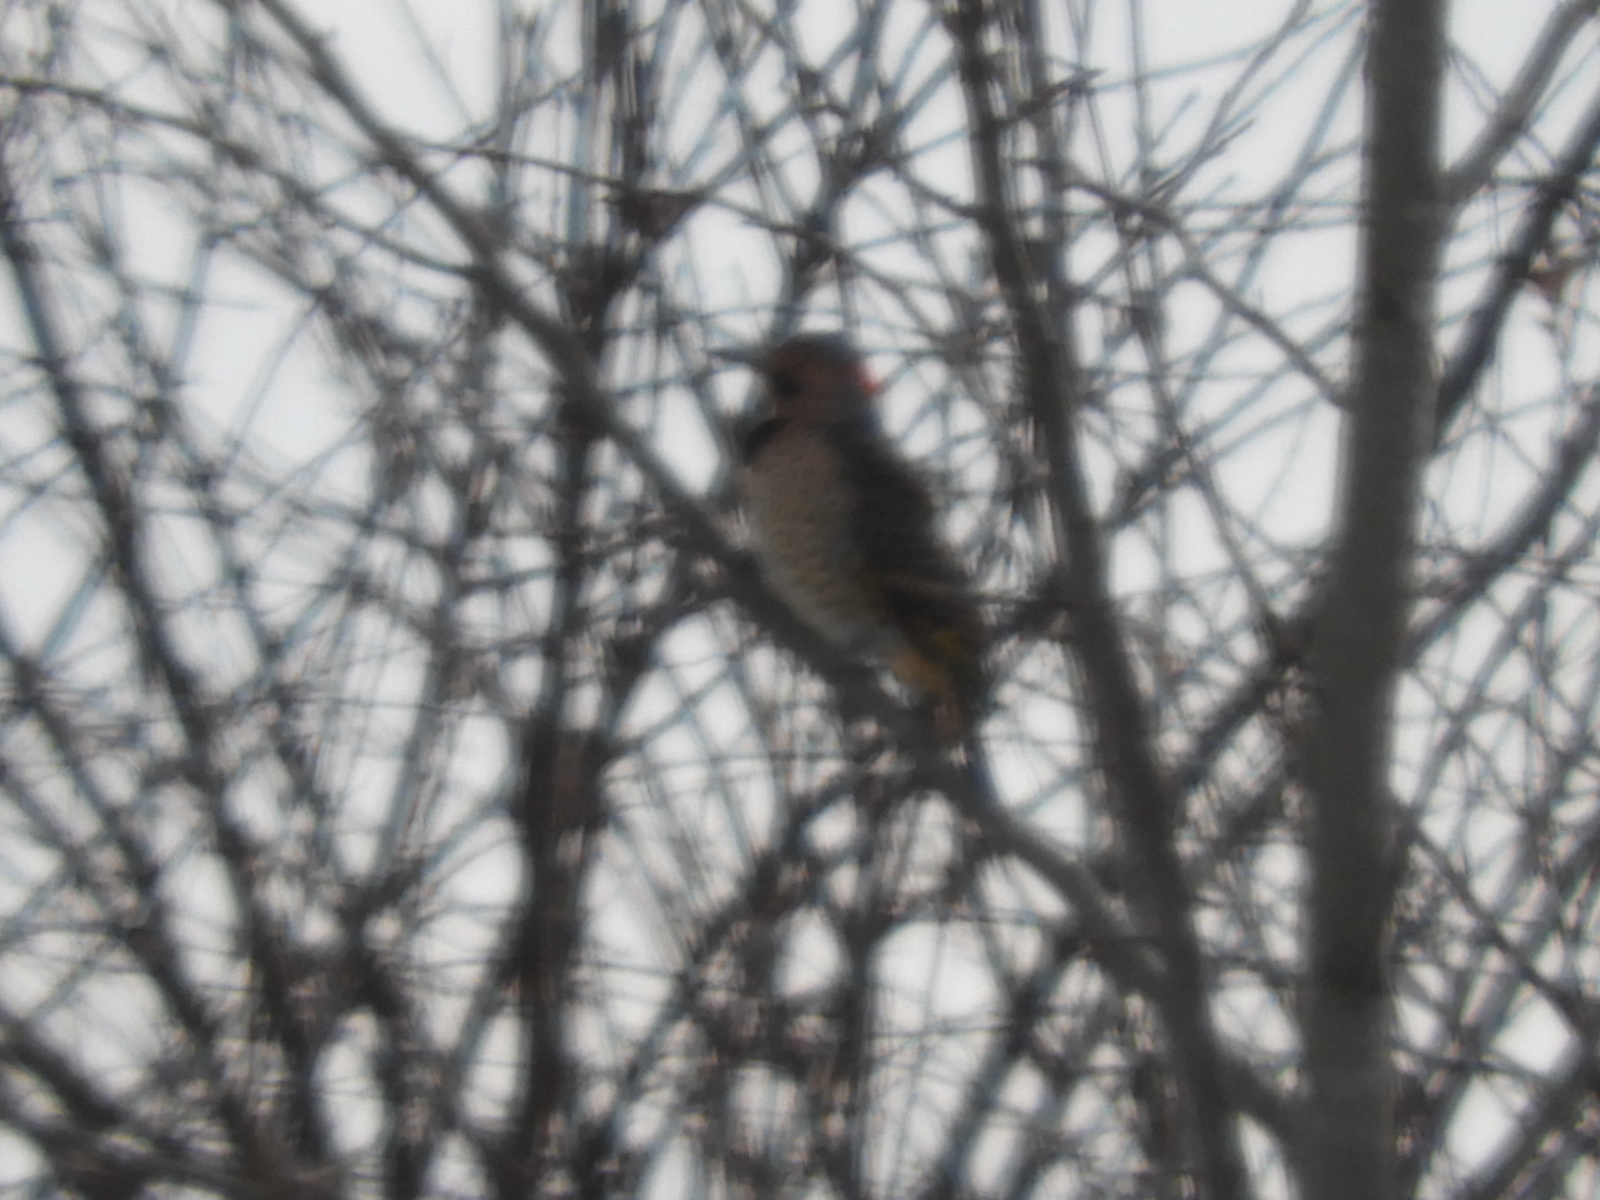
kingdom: Animalia
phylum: Chordata
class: Aves
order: Piciformes
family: Picidae
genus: Colaptes
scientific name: Colaptes auratus
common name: Northern flicker
